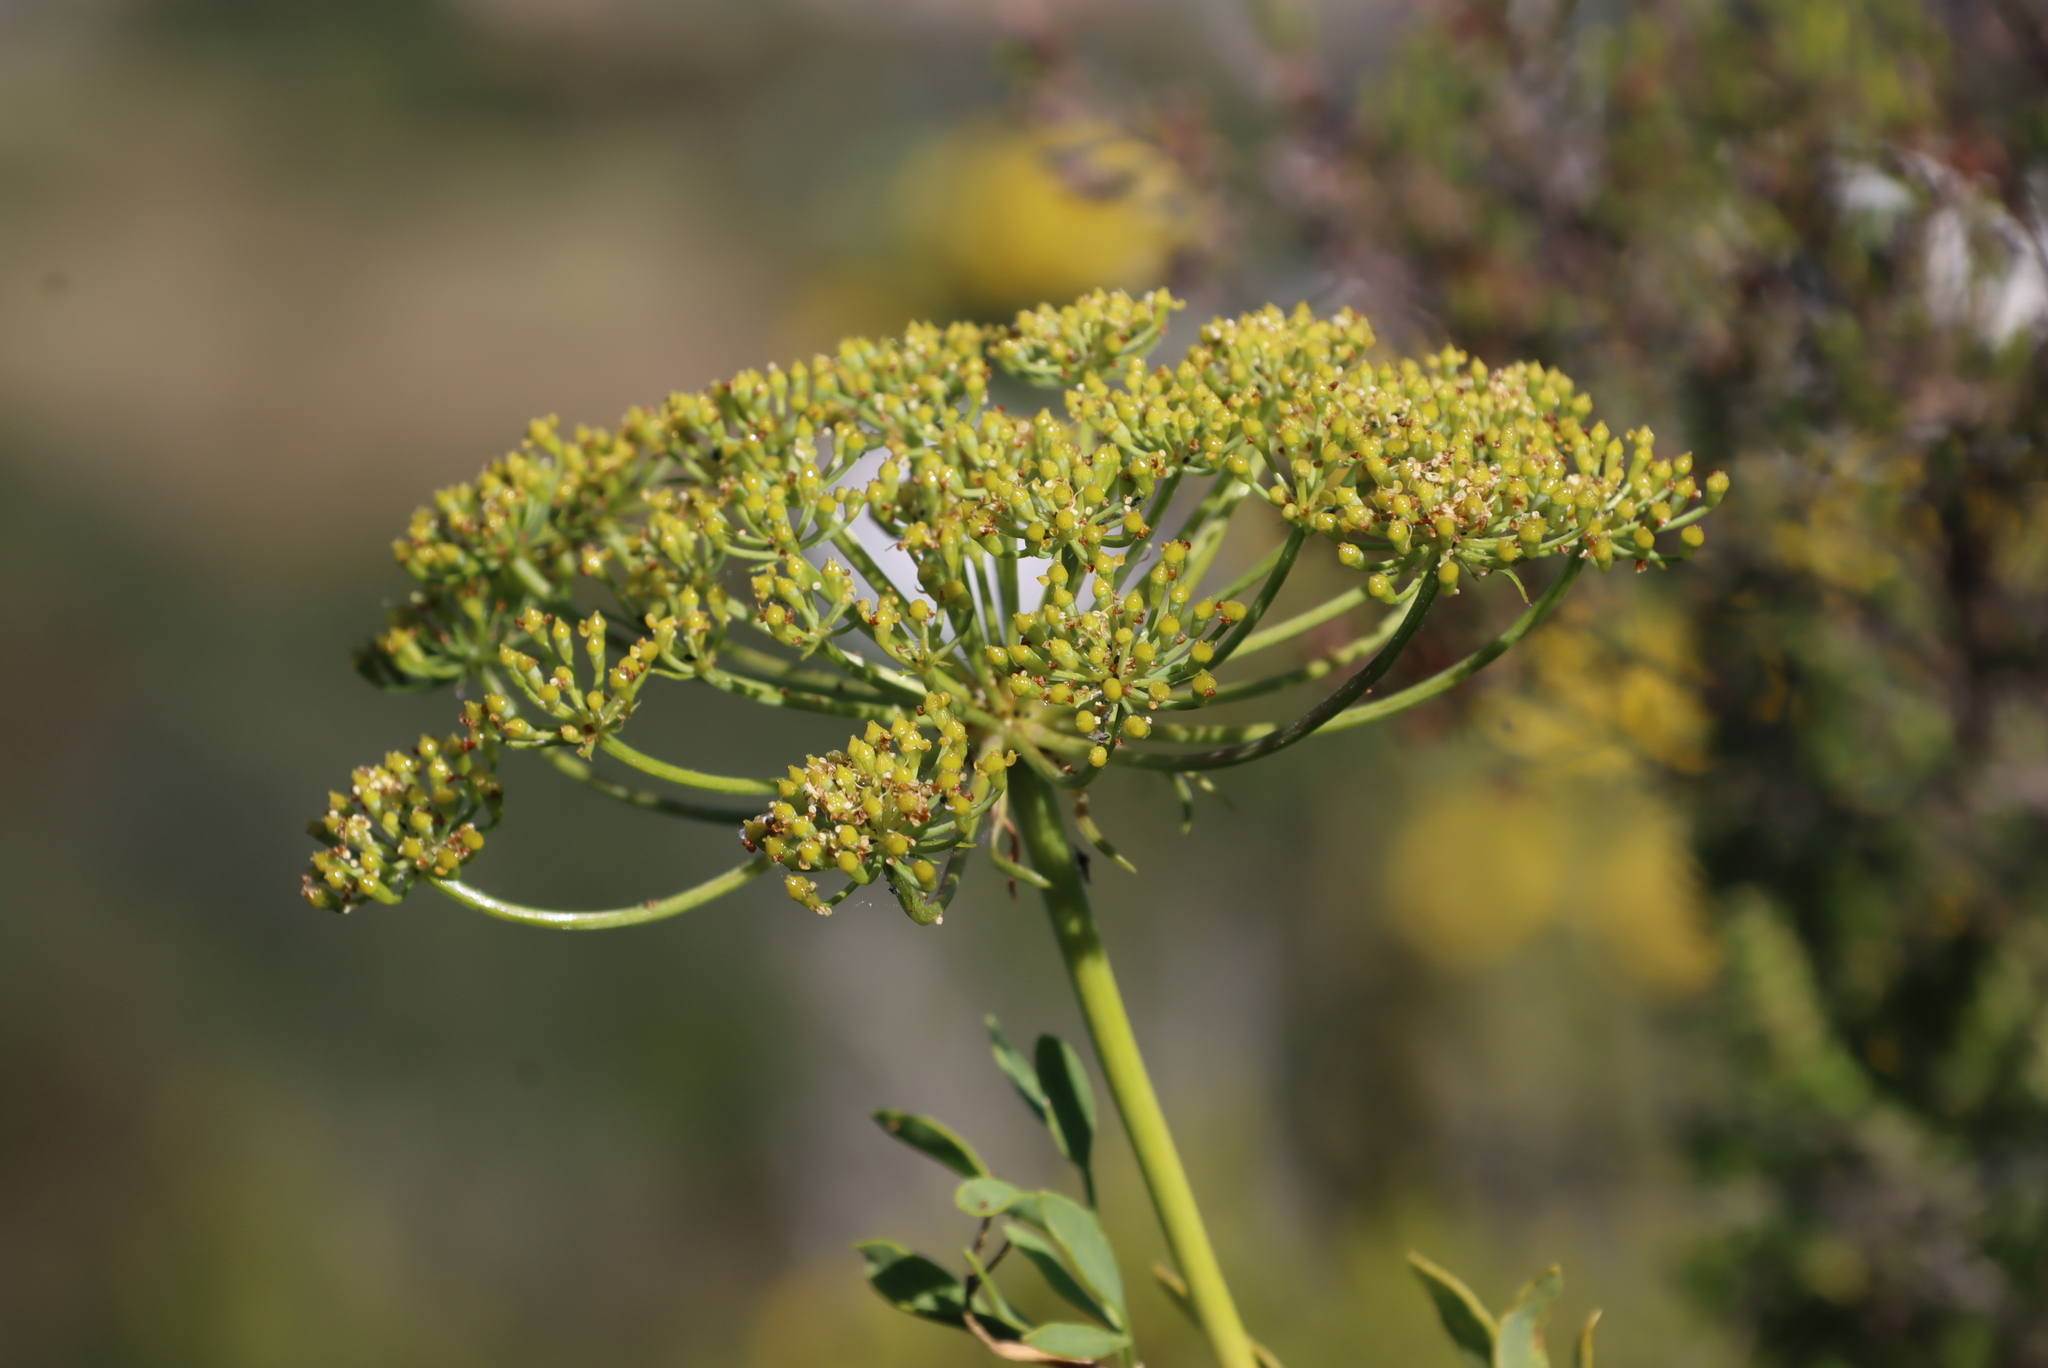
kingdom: Plantae
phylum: Tracheophyta
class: Magnoliopsida
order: Apiales
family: Apiaceae
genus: Notobubon
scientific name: Notobubon laevigatum
